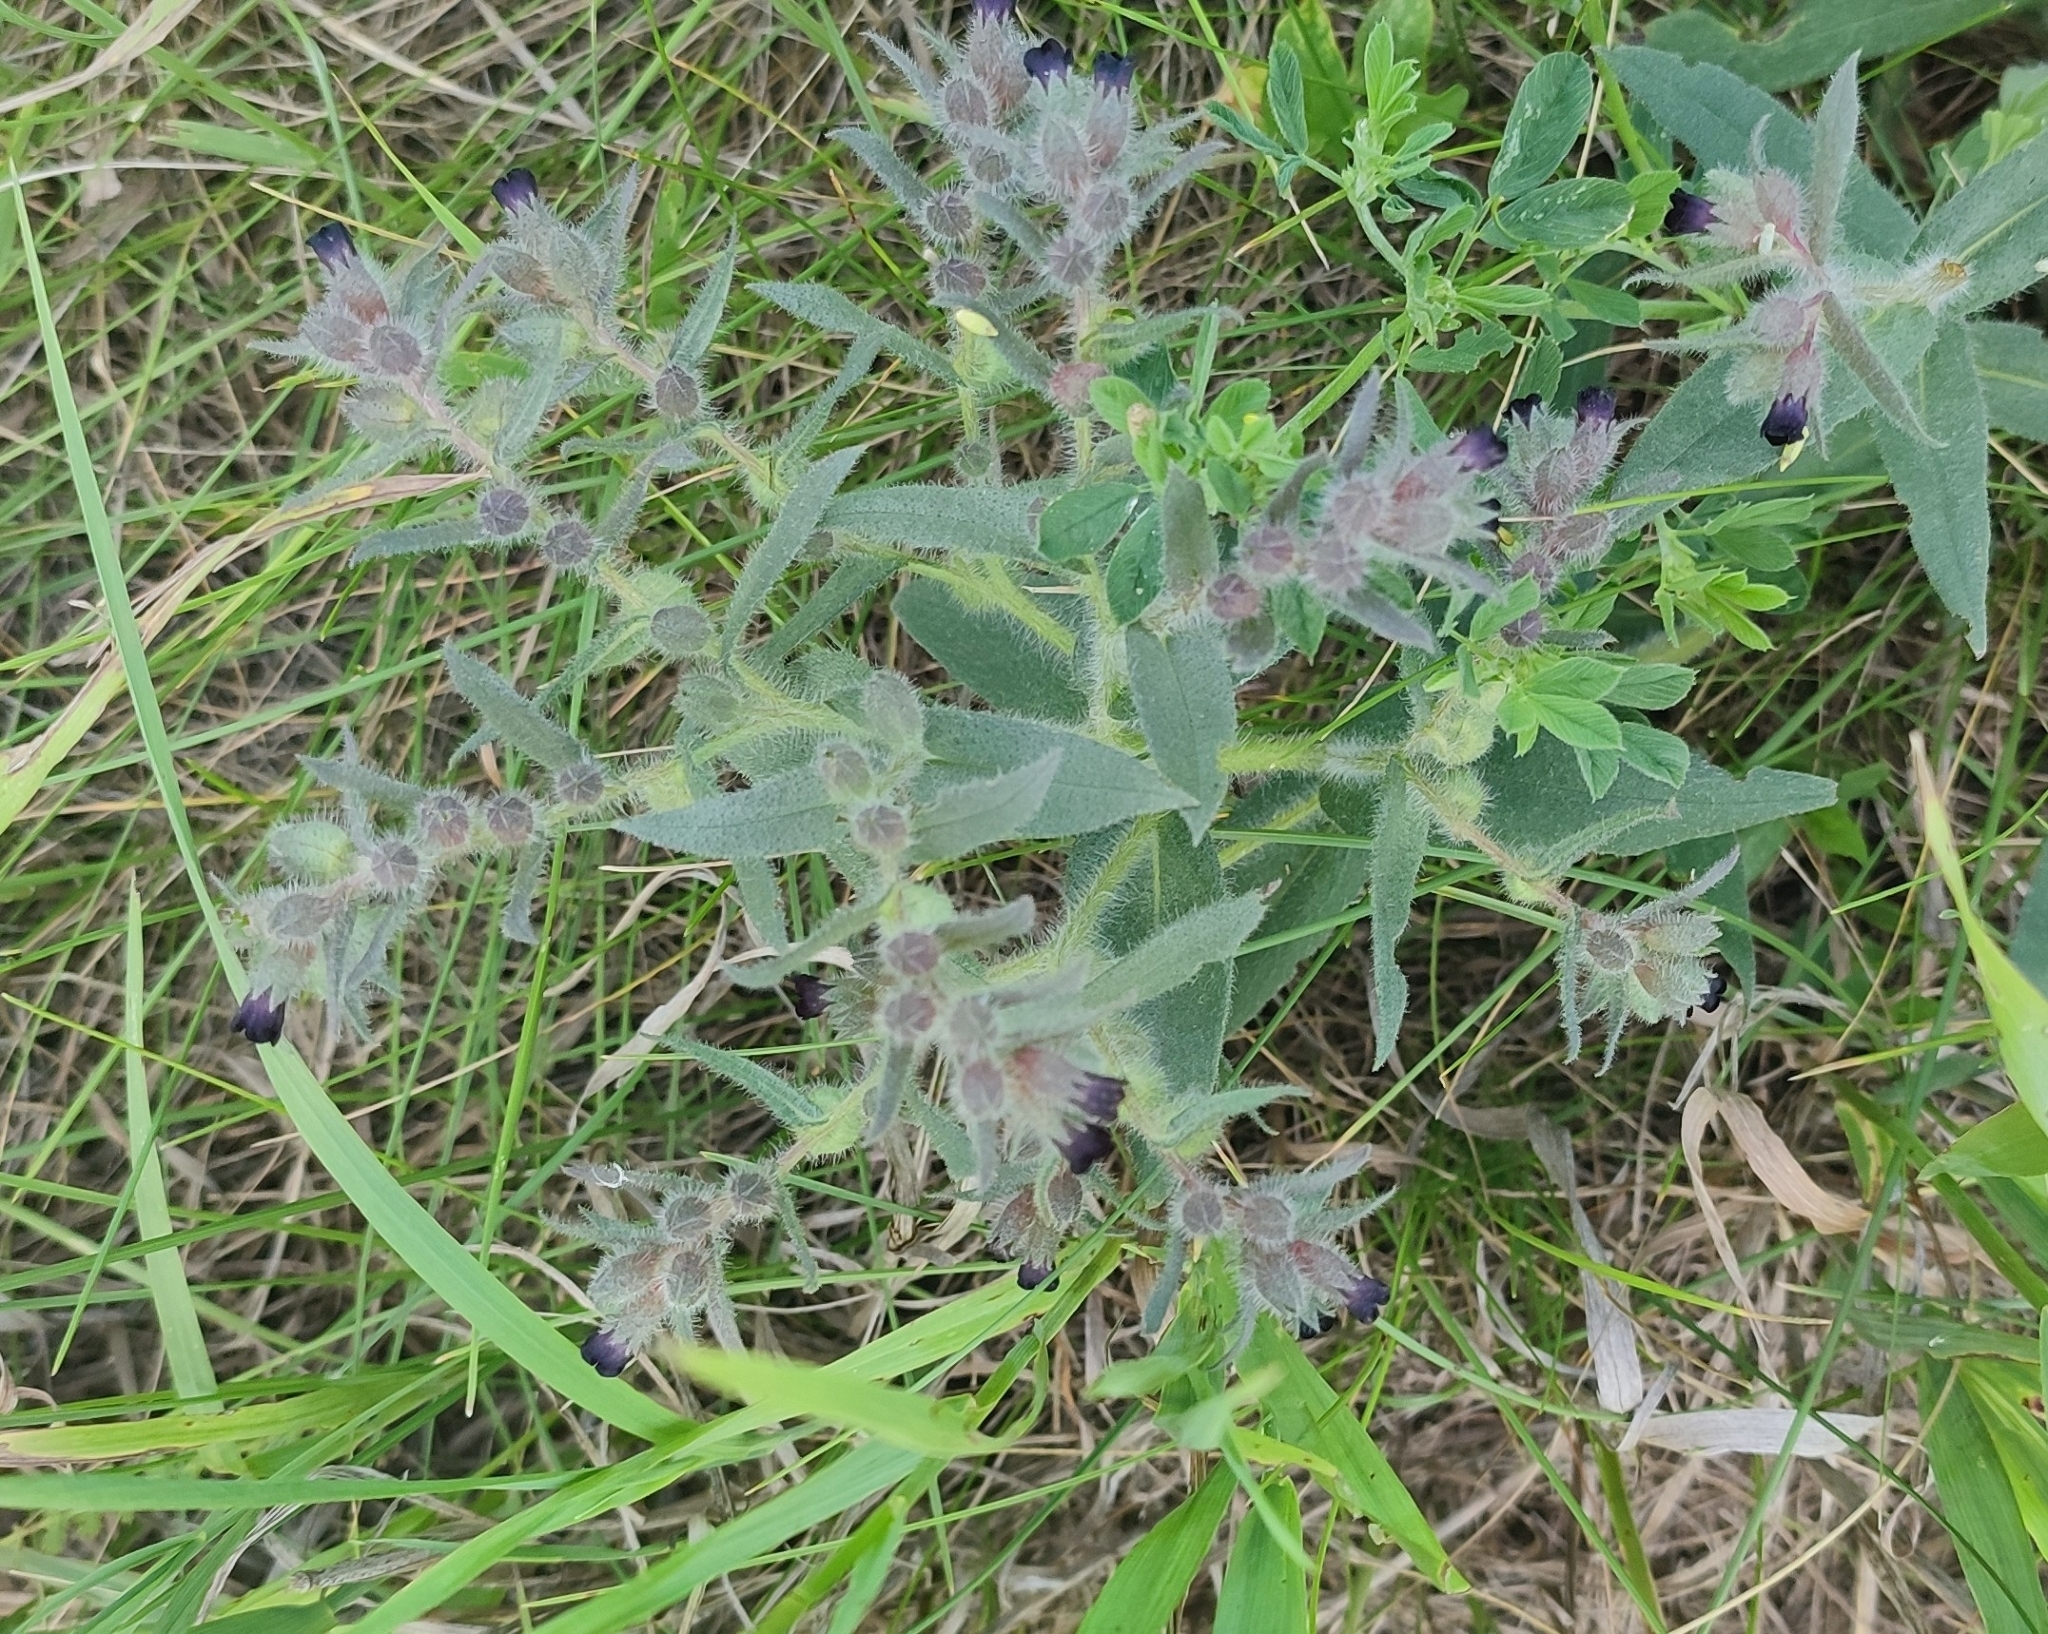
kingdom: Plantae
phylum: Tracheophyta
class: Magnoliopsida
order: Boraginales
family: Boraginaceae
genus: Nonea
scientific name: Nonea pulla
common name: Brown nonea
